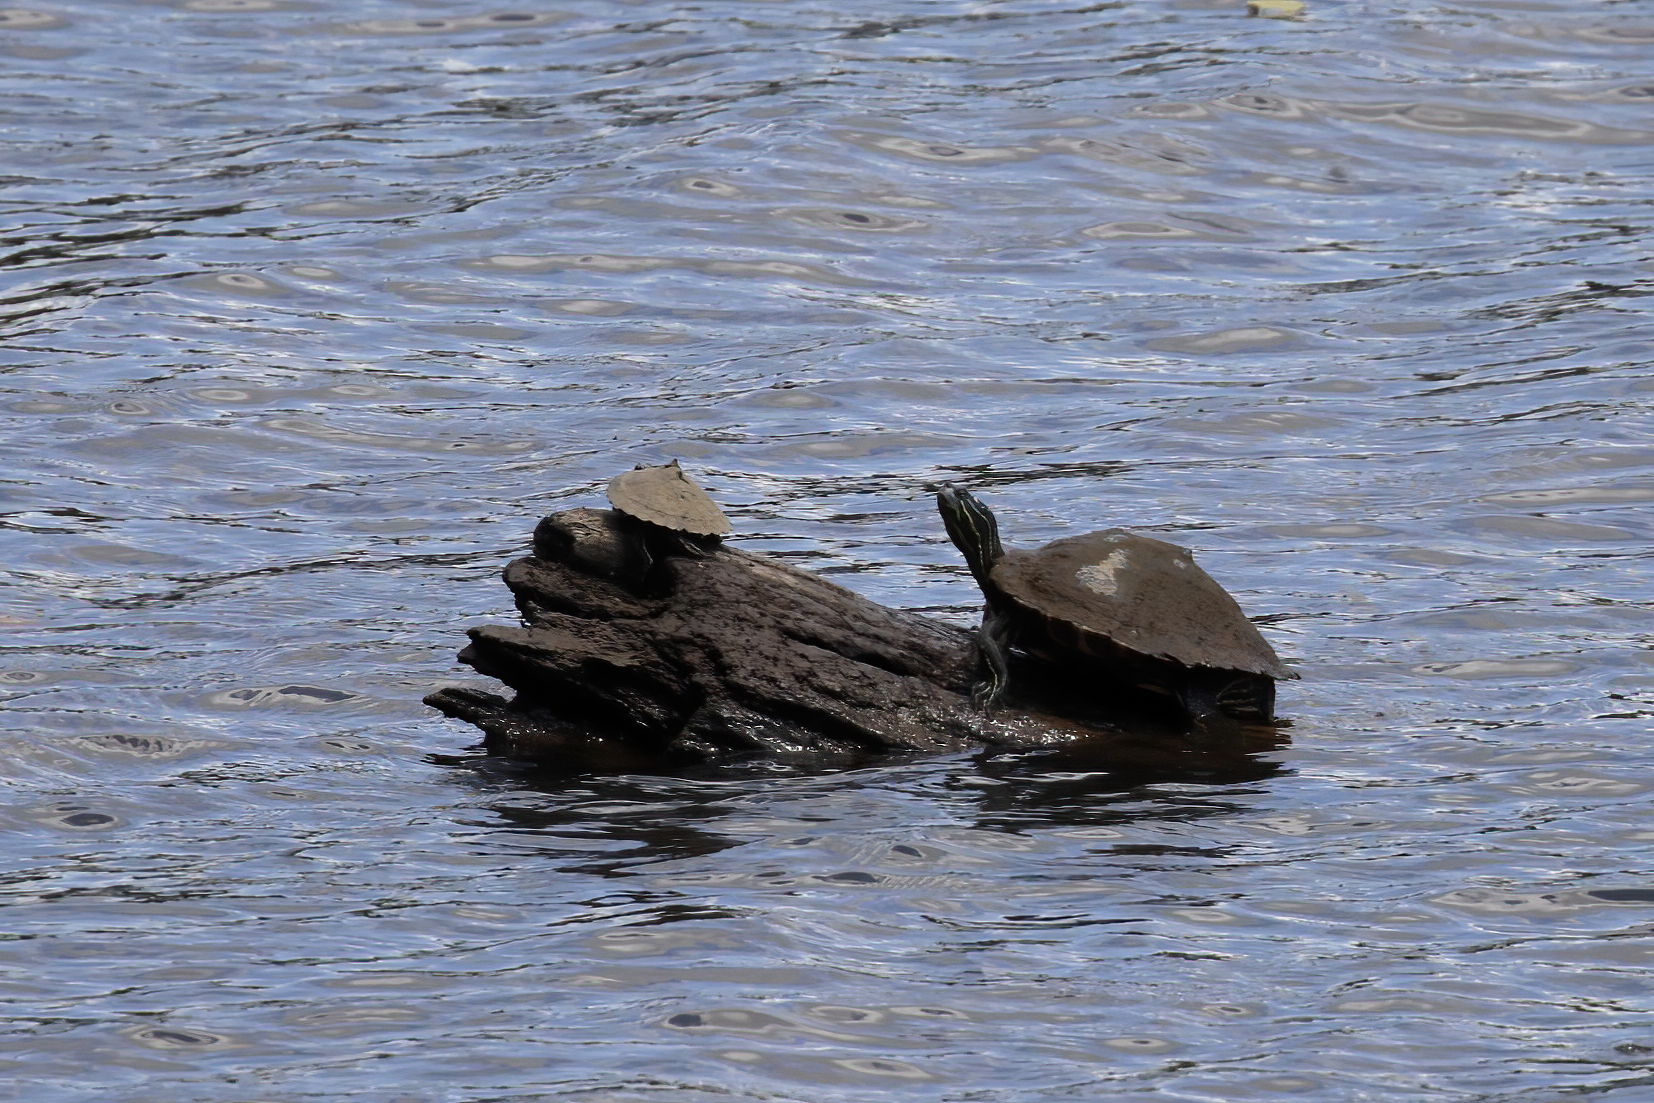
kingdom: Animalia
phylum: Chordata
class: Testudines
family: Emydidae
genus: Graptemys
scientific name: Graptemys oculifera
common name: Ringed map turtle
